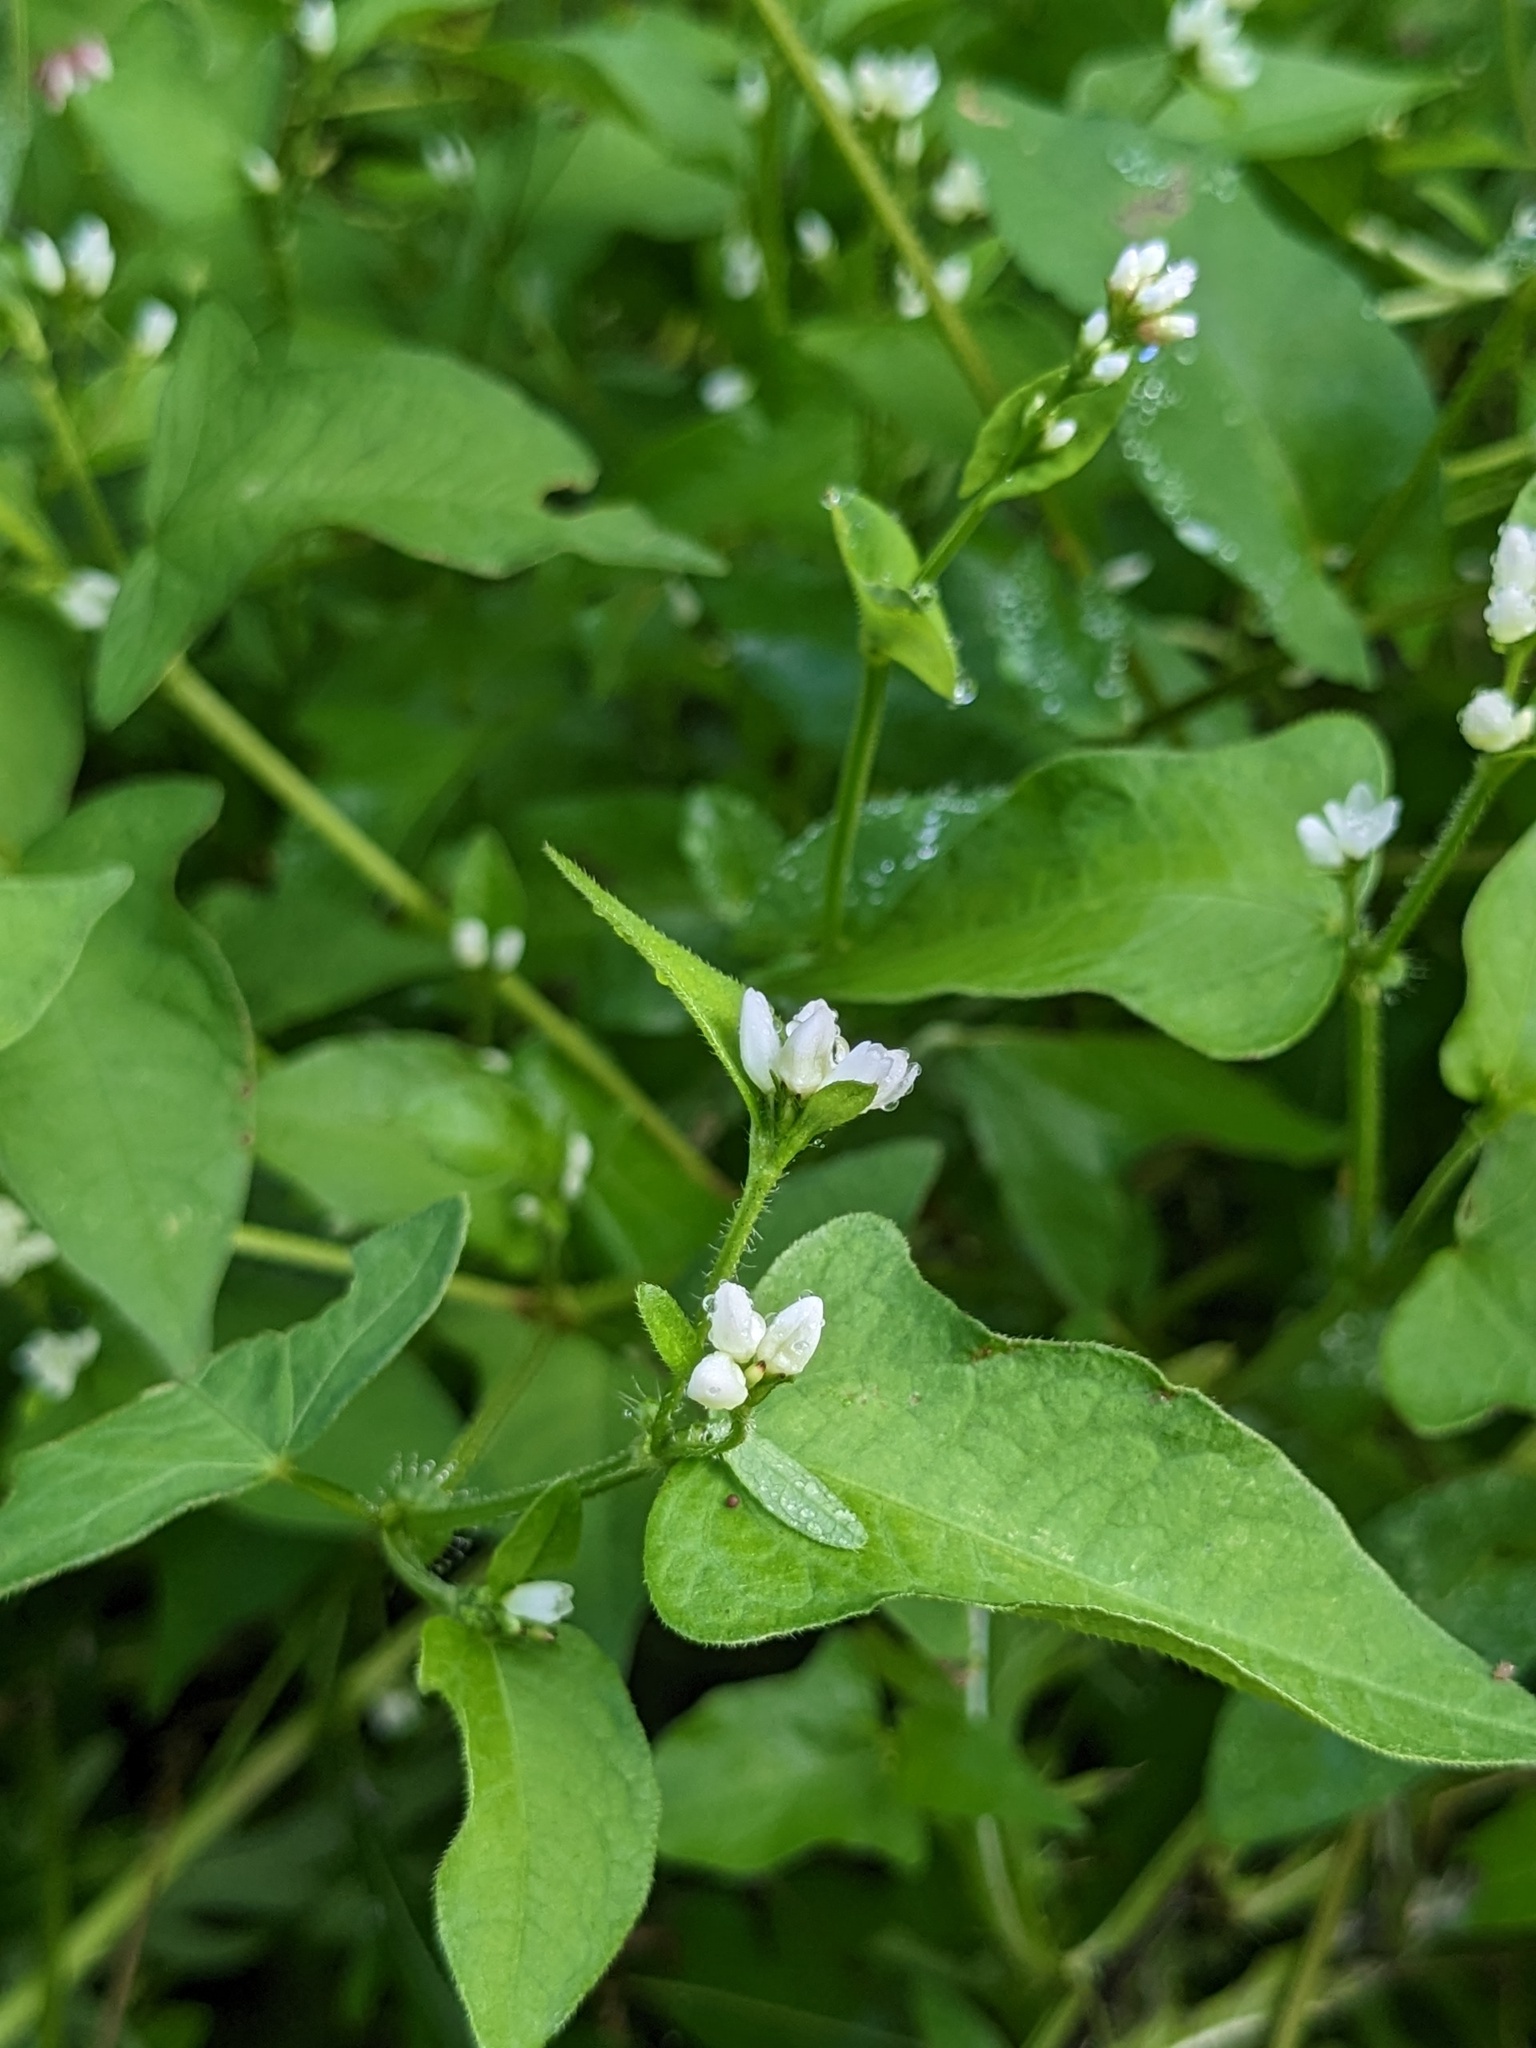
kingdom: Plantae
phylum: Tracheophyta
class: Magnoliopsida
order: Caryophyllales
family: Polygonaceae
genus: Persicaria
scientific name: Persicaria thunbergii
